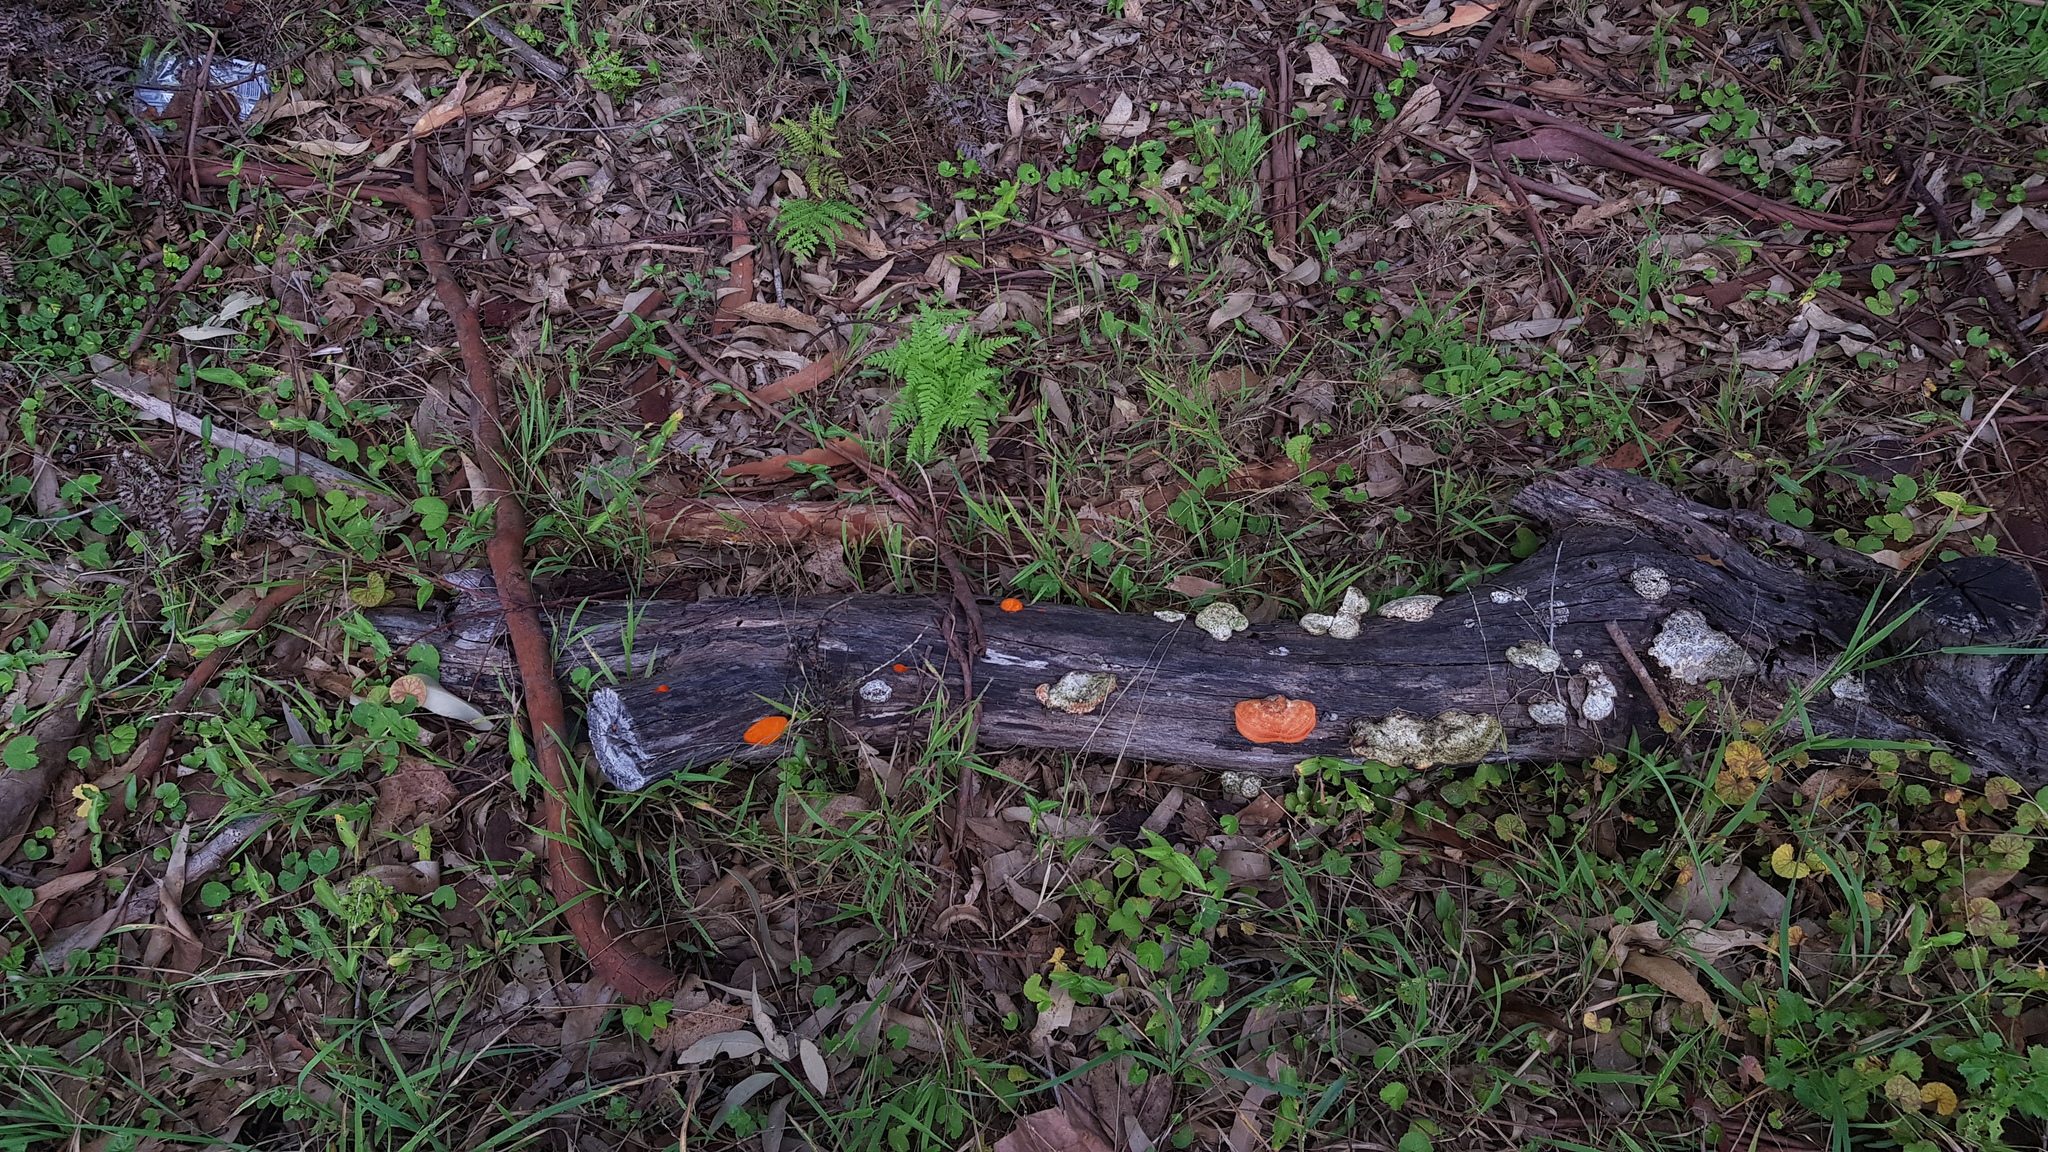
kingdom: Fungi
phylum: Basidiomycota
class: Agaricomycetes
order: Polyporales
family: Polyporaceae
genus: Trametes
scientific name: Trametes coccinea
